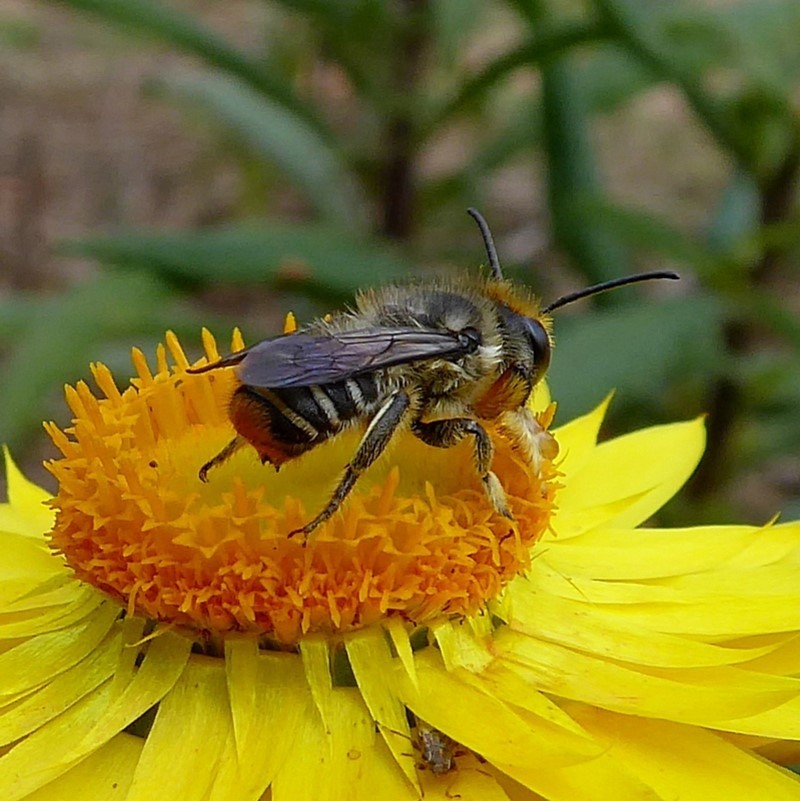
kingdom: Animalia
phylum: Arthropoda
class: Insecta
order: Hymenoptera
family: Megachilidae
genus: Megachile
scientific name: Megachile chrysopyga
